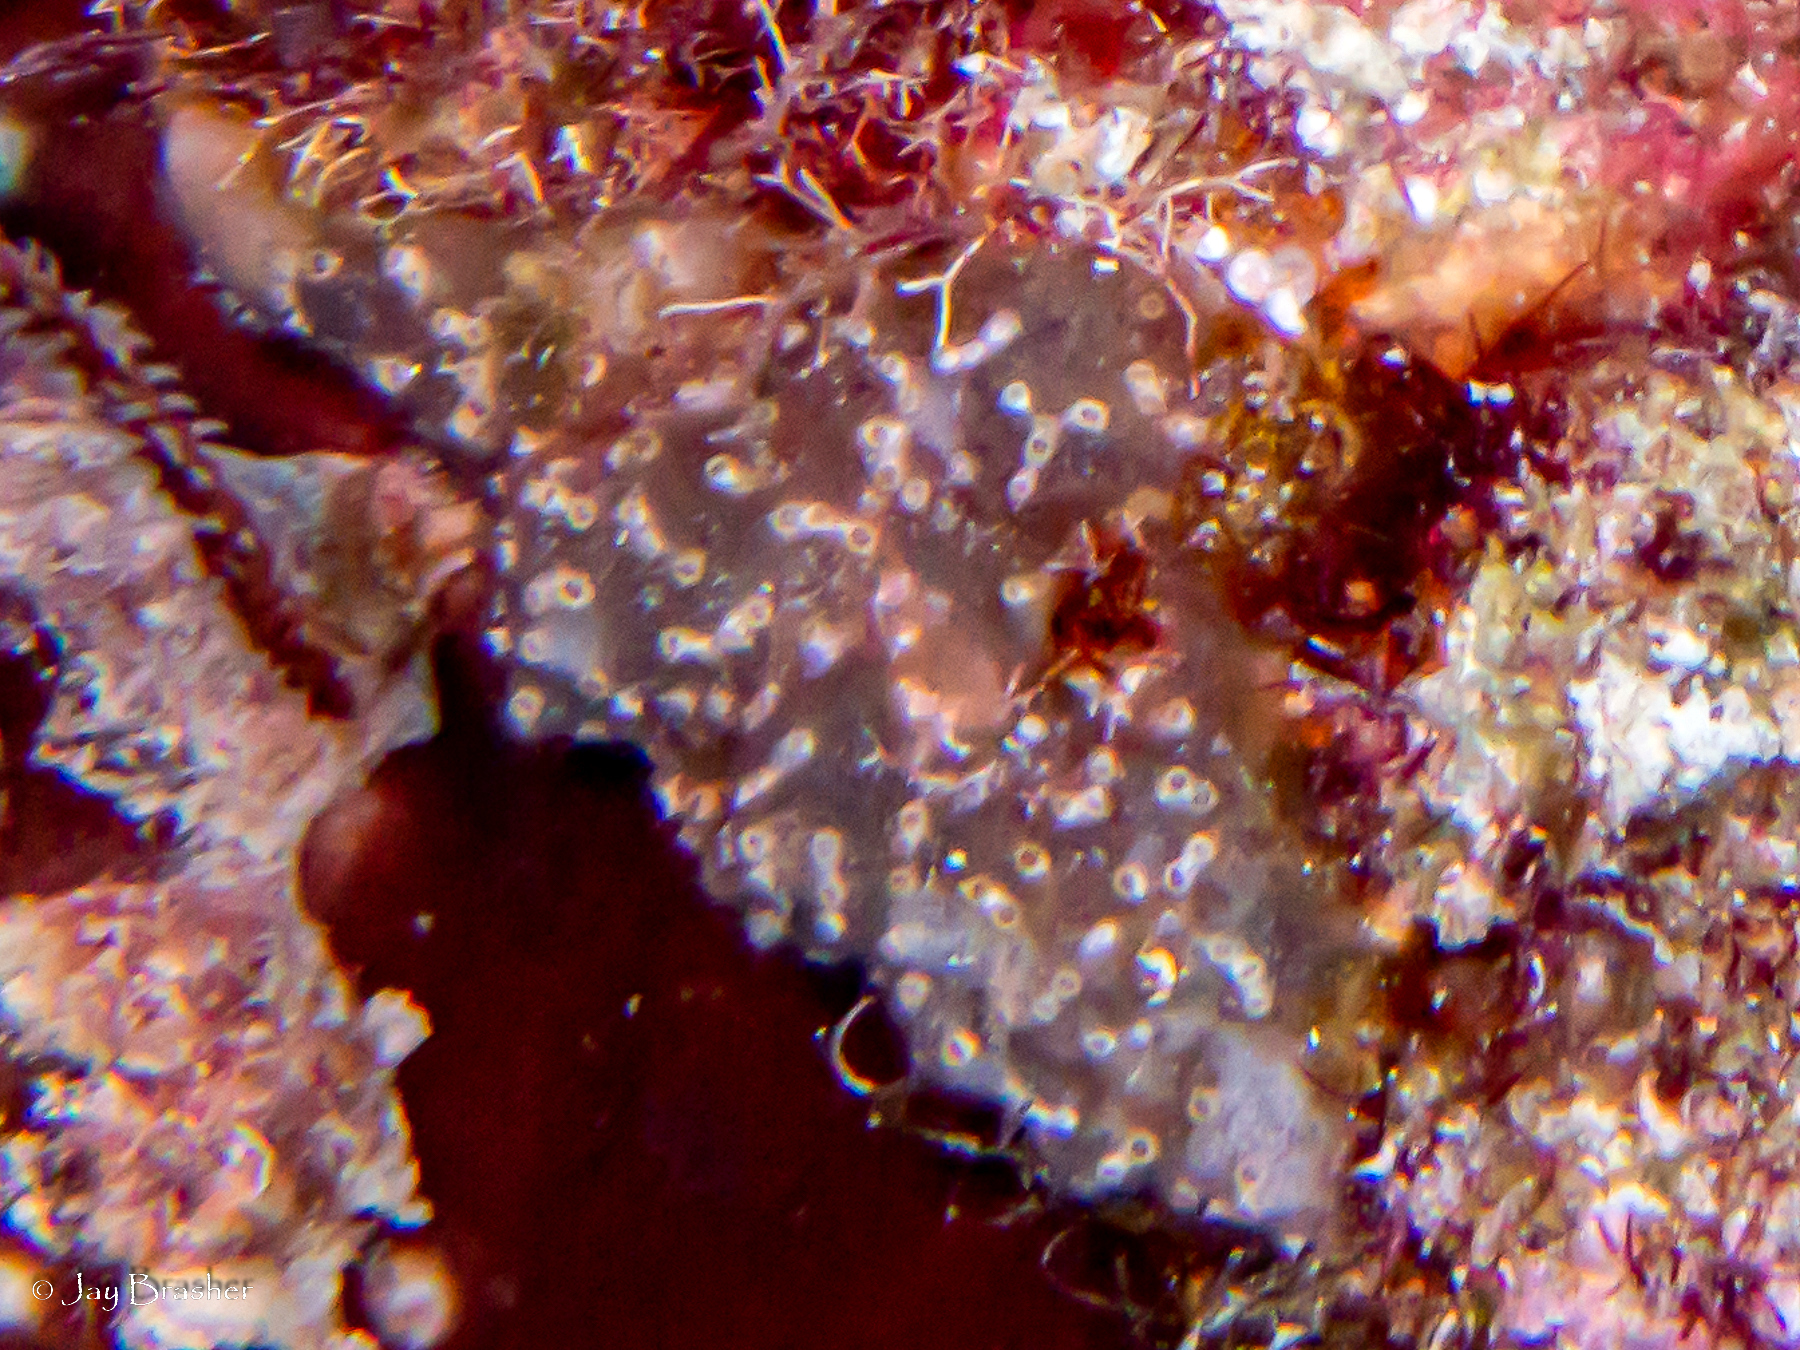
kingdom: Animalia
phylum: Cnidaria
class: Anthozoa
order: Zoantharia
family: Parazoanthidae
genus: Bergia
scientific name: Bergia catenularis
